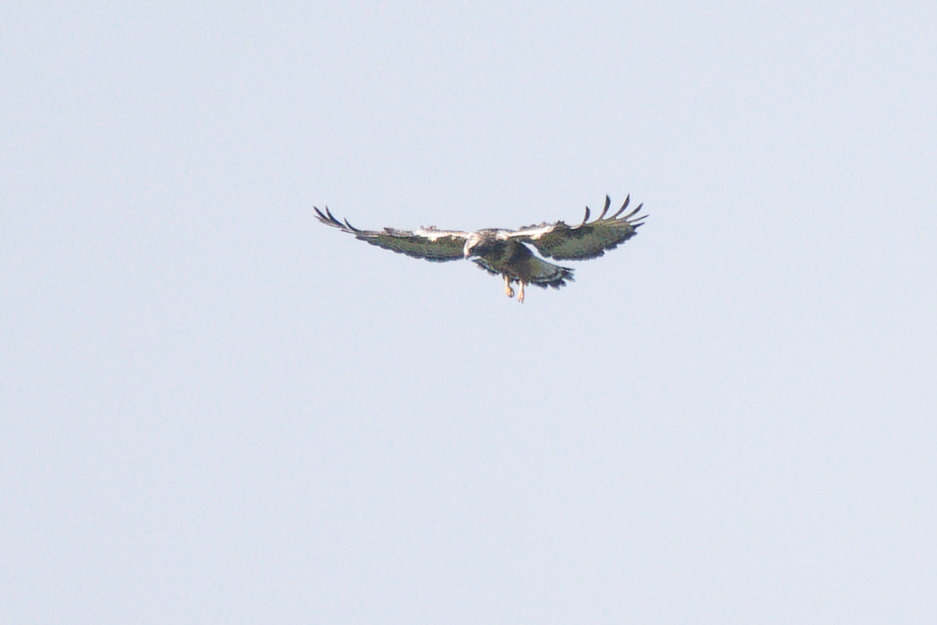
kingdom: Animalia
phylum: Chordata
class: Aves
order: Accipitriformes
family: Accipitridae
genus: Buteo
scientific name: Buteo lagopus
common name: Rough-legged buzzard
